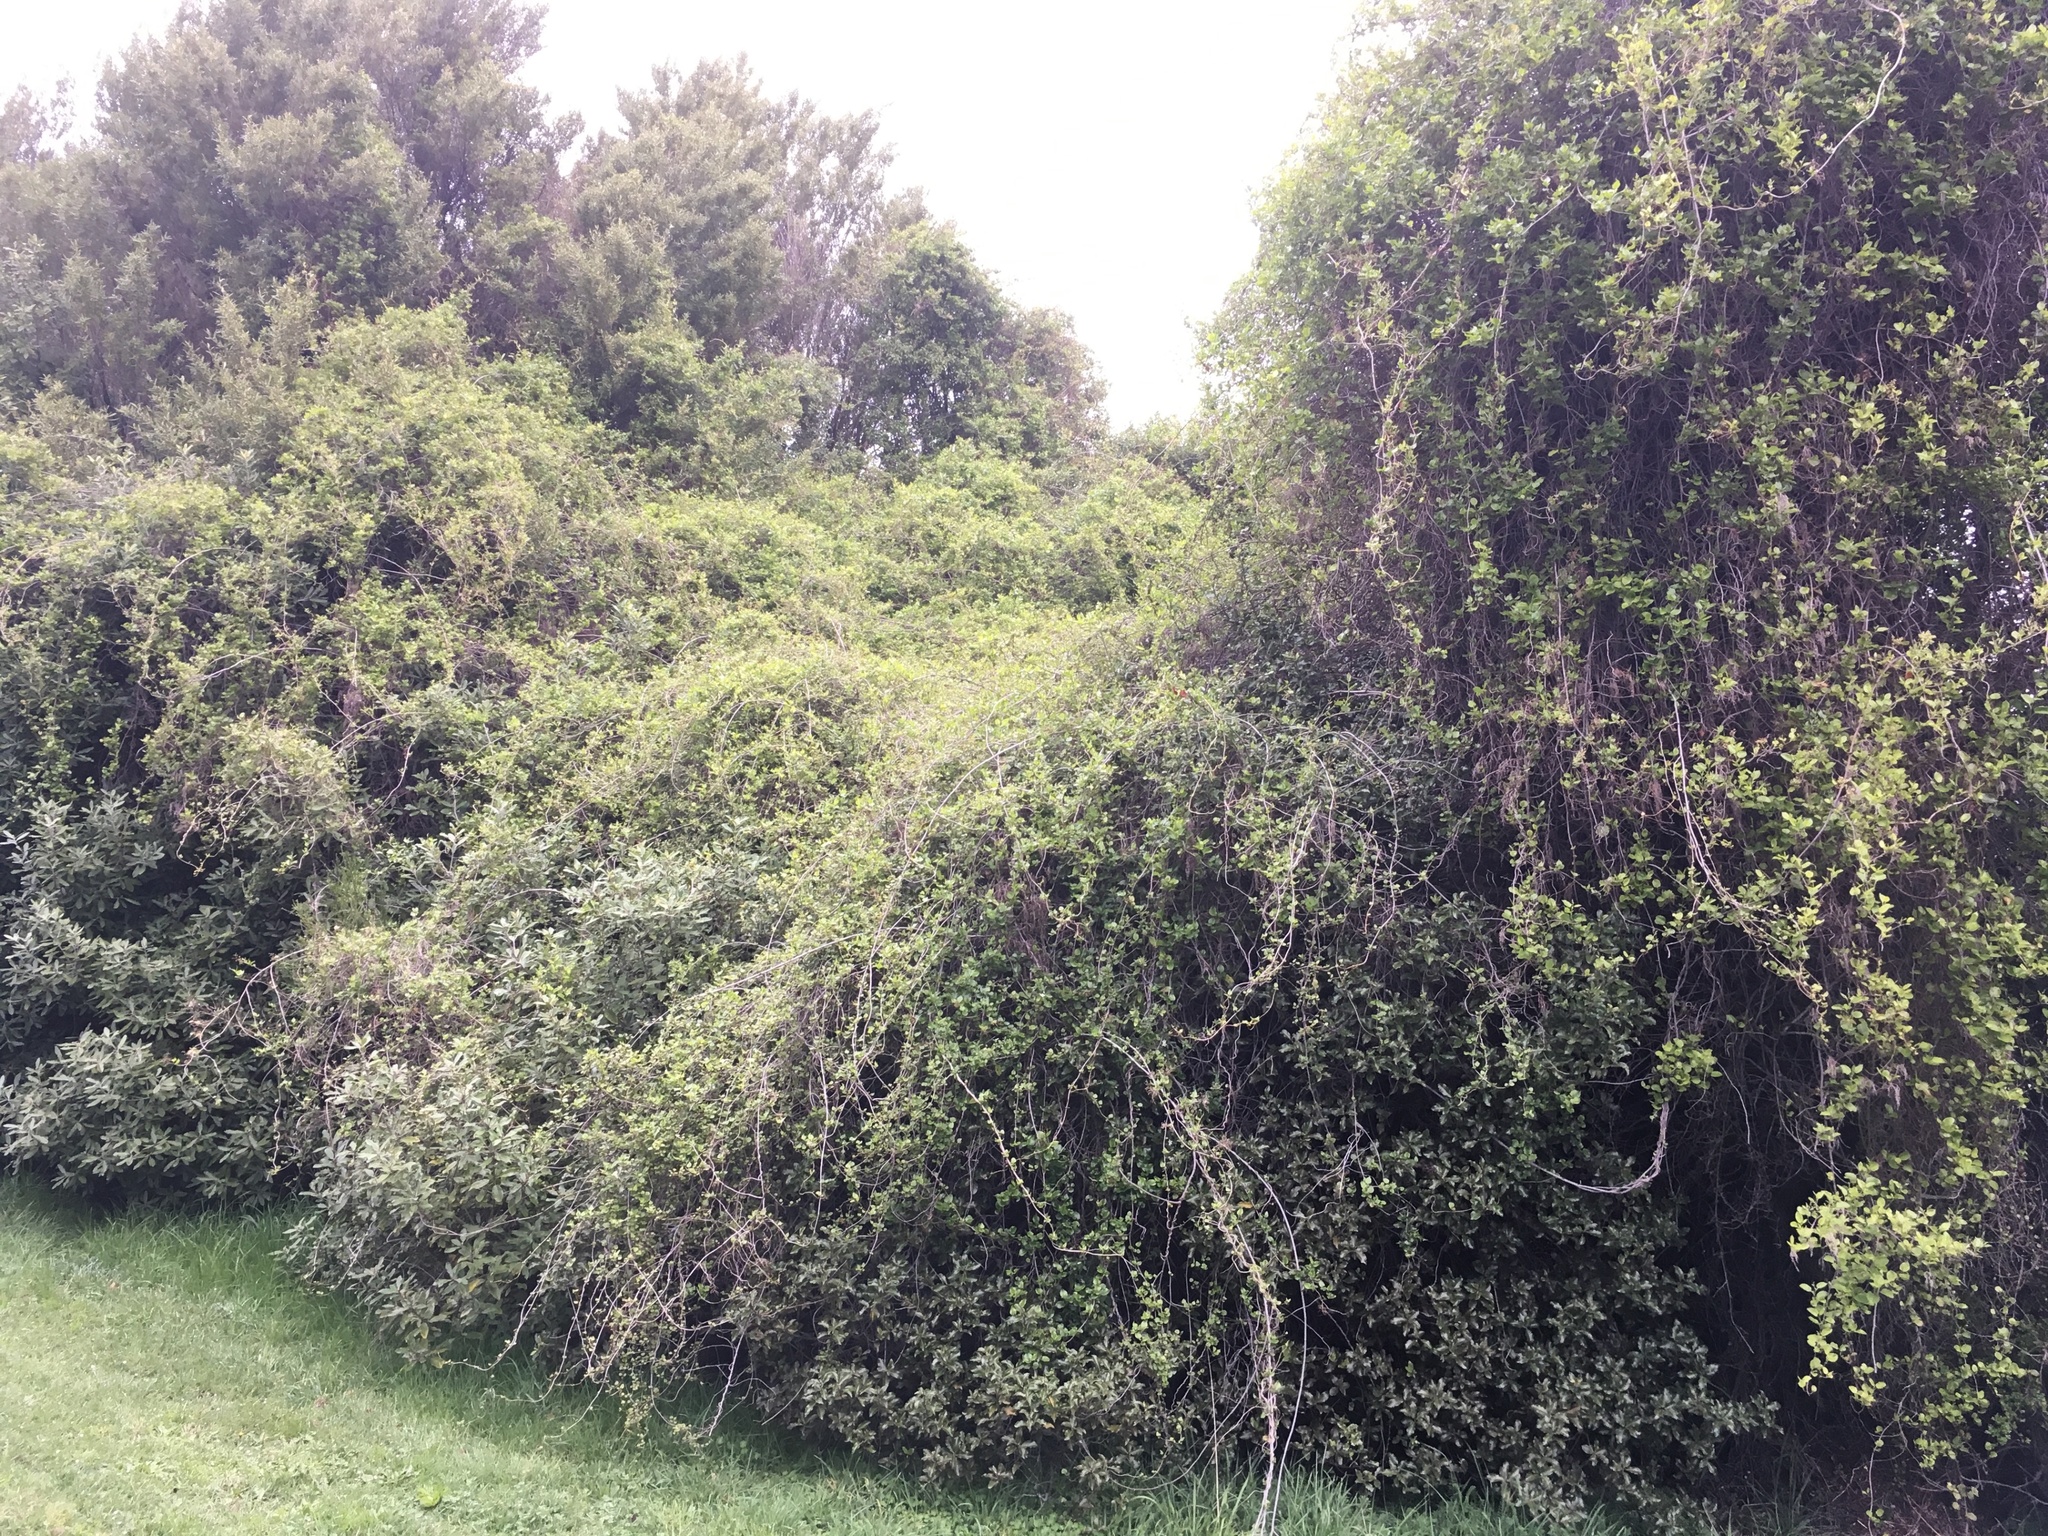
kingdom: Plantae
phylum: Tracheophyta
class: Magnoliopsida
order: Caryophyllales
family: Polygonaceae
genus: Muehlenbeckia
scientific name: Muehlenbeckia australis
